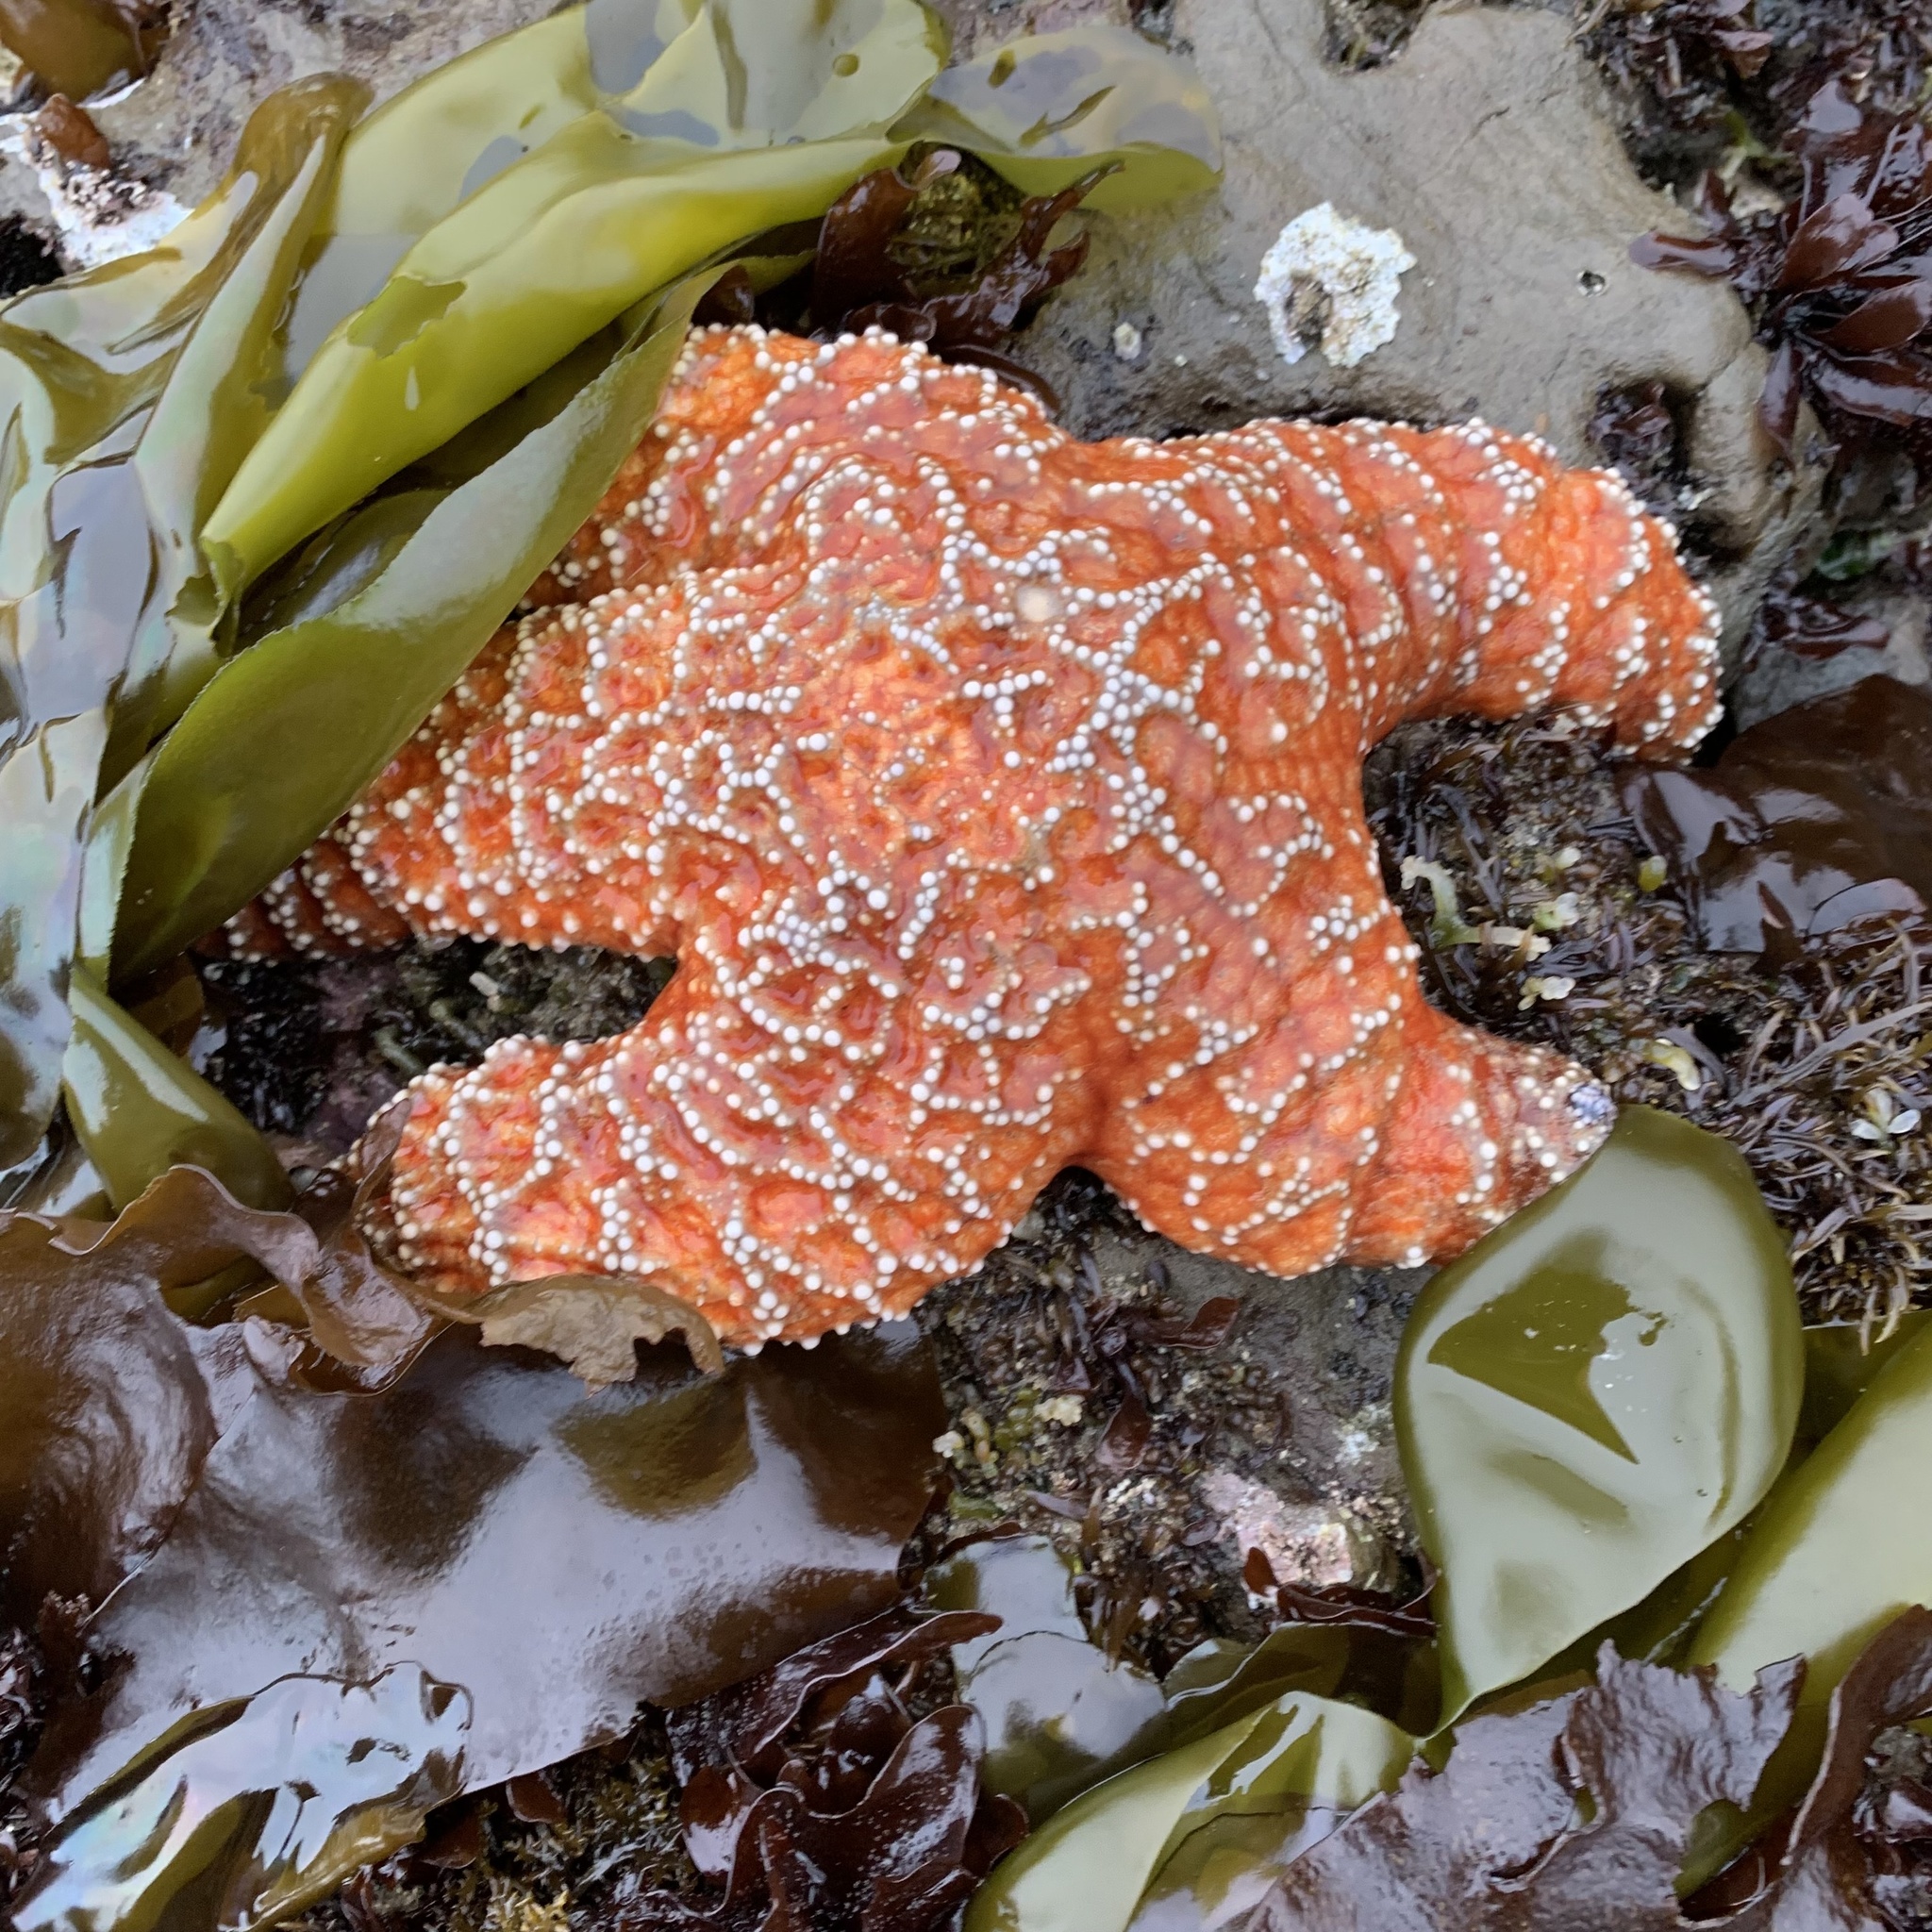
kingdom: Animalia
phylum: Echinodermata
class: Asteroidea
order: Forcipulatida
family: Asteriidae
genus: Pisaster
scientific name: Pisaster ochraceus
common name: Ochre stars
